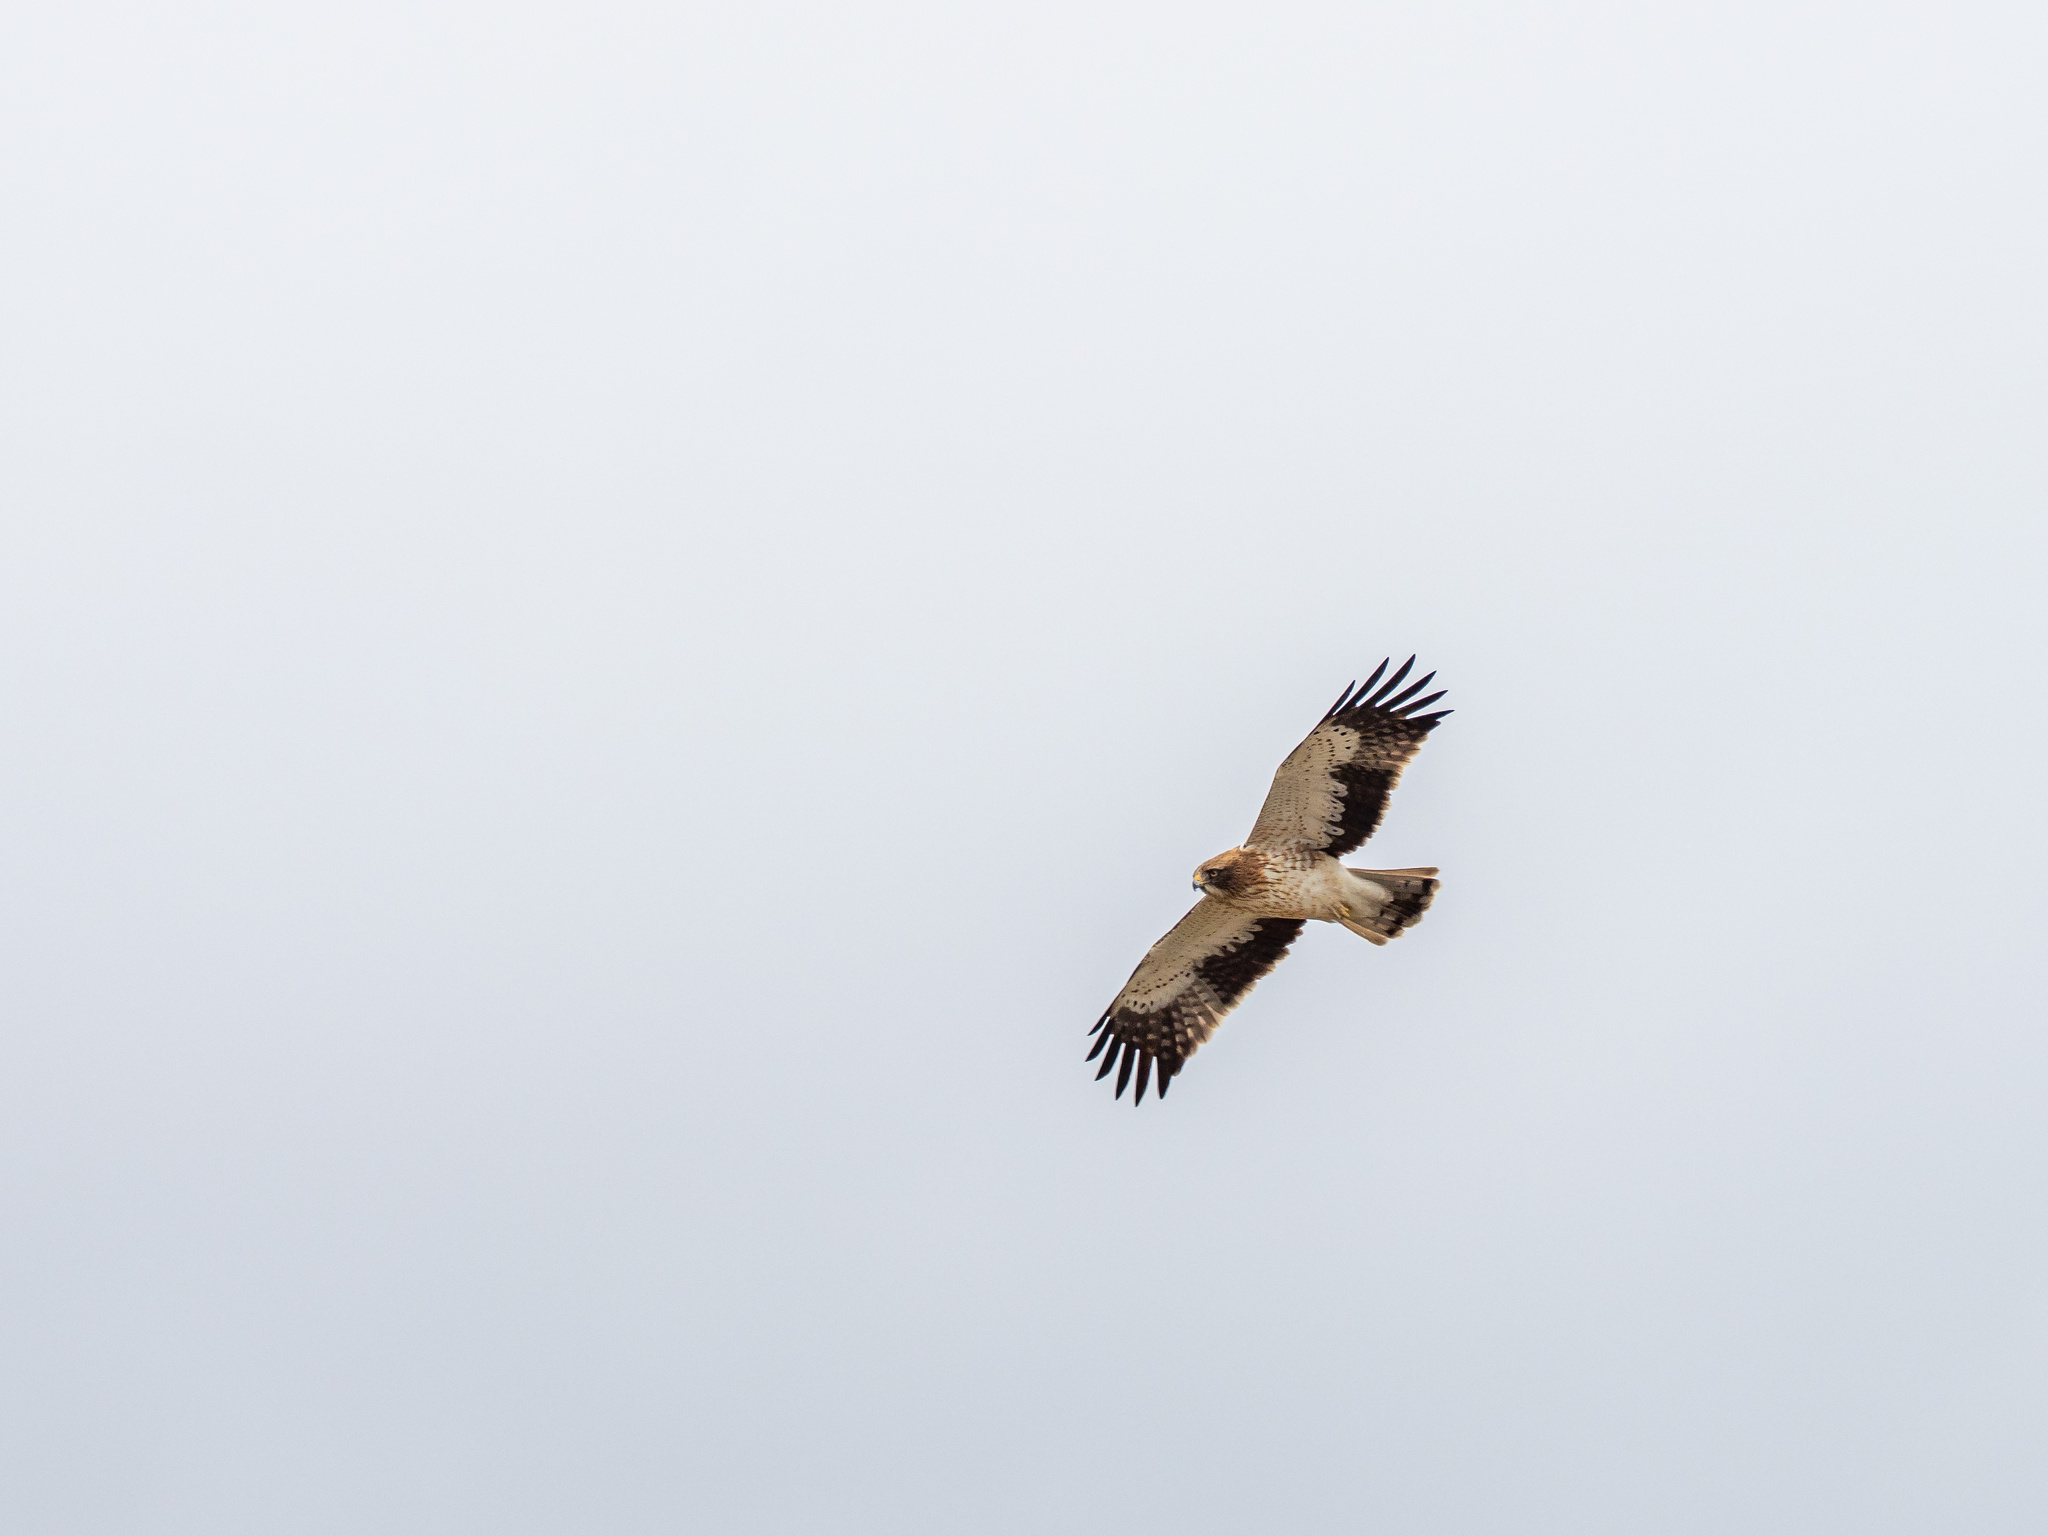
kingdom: Animalia
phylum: Chordata
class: Aves
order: Accipitriformes
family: Accipitridae
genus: Hieraaetus
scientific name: Hieraaetus pennatus
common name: Booted eagle
